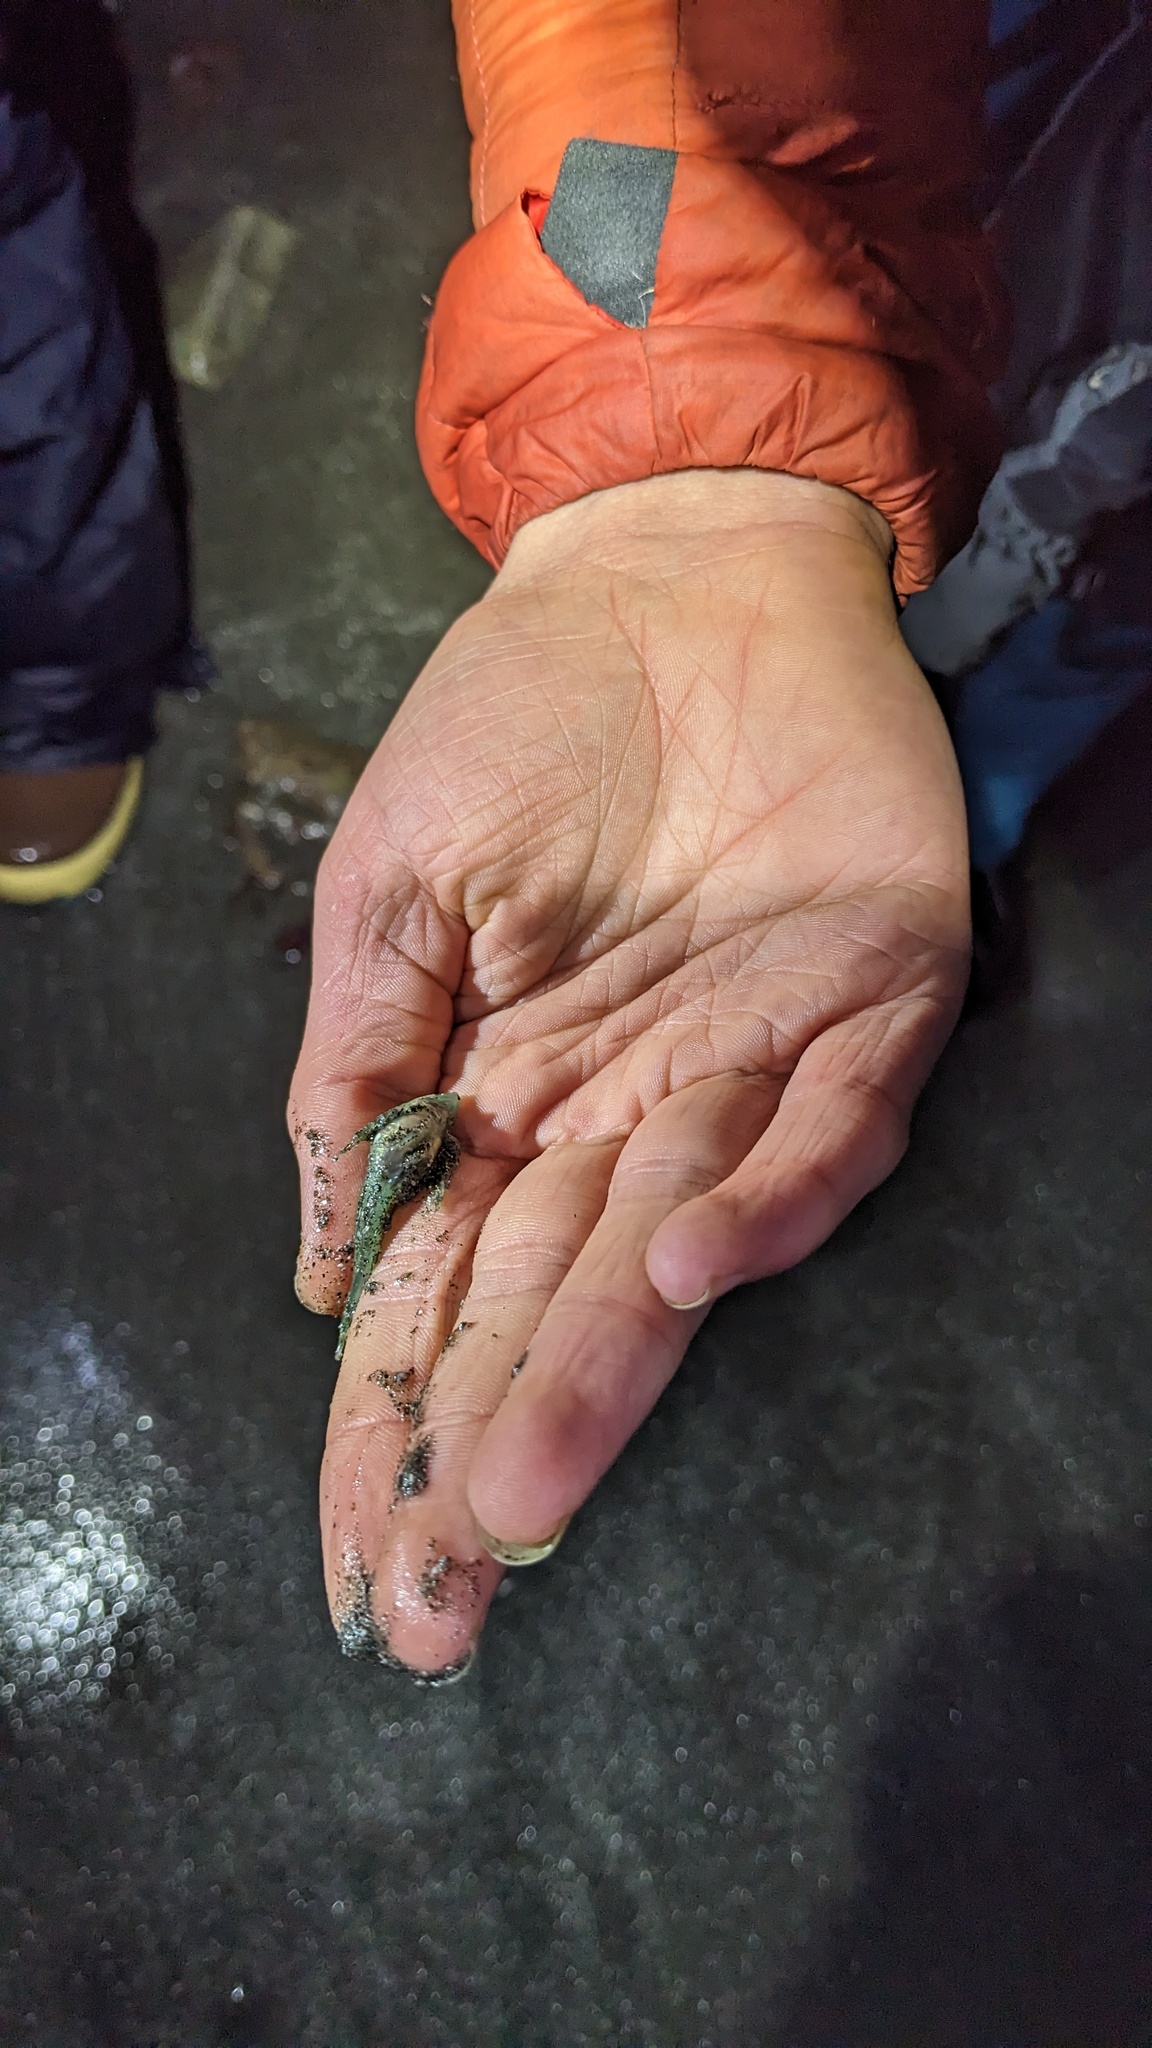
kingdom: Animalia
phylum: Chordata
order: Scorpaeniformes
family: Cottidae
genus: Clinocottus
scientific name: Clinocottus acuticeps
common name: Sharpnose sculpin
